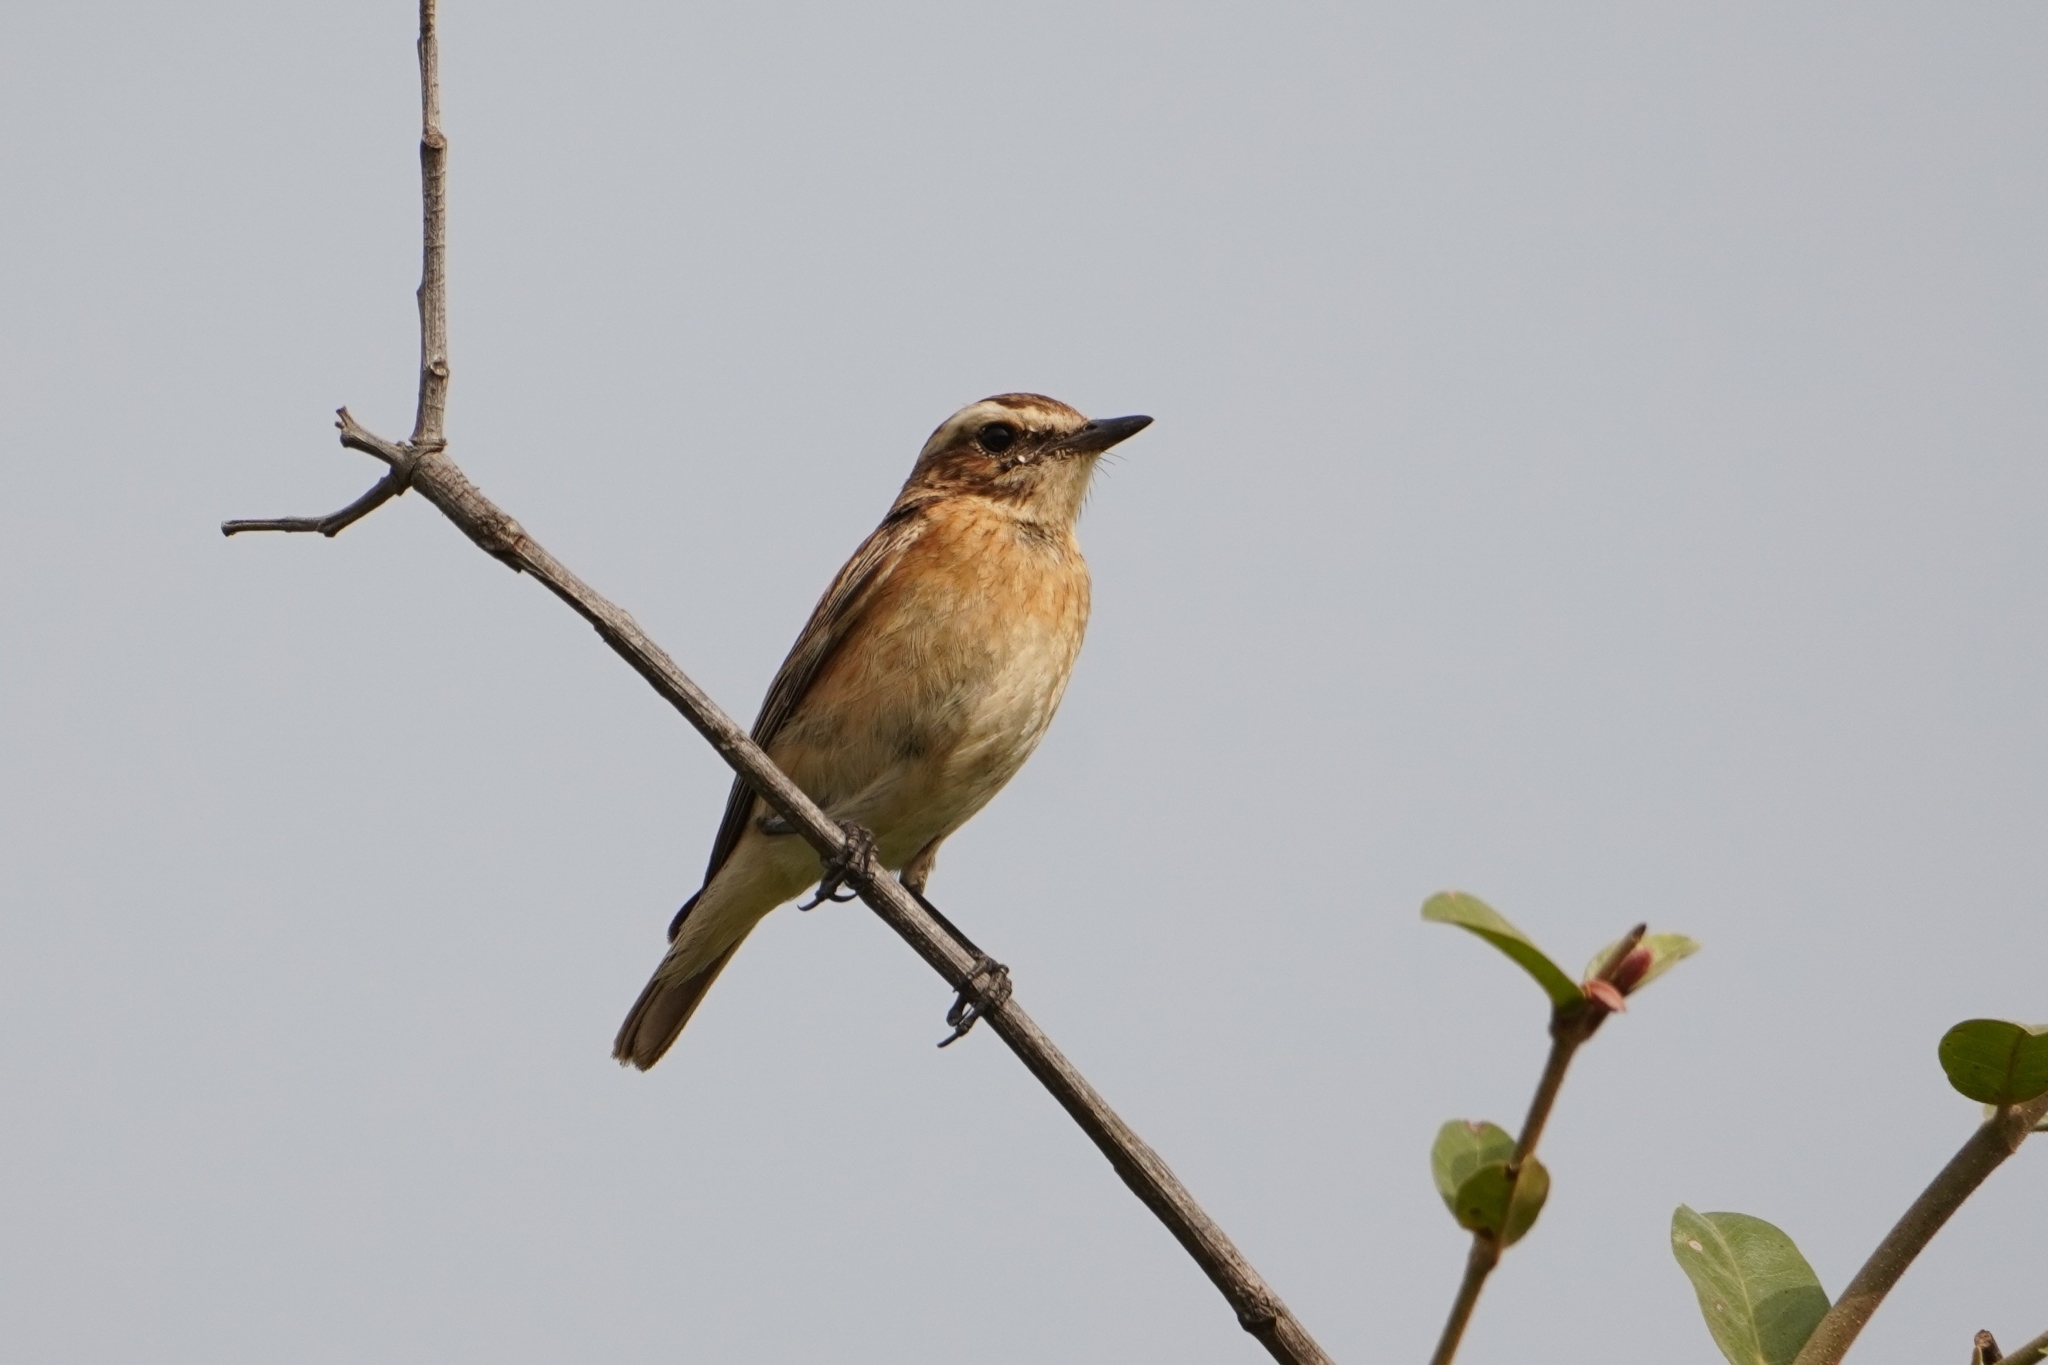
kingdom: Animalia
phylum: Chordata
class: Aves
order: Passeriformes
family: Muscicapidae
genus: Saxicola
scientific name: Saxicola rubetra
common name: Whinchat
